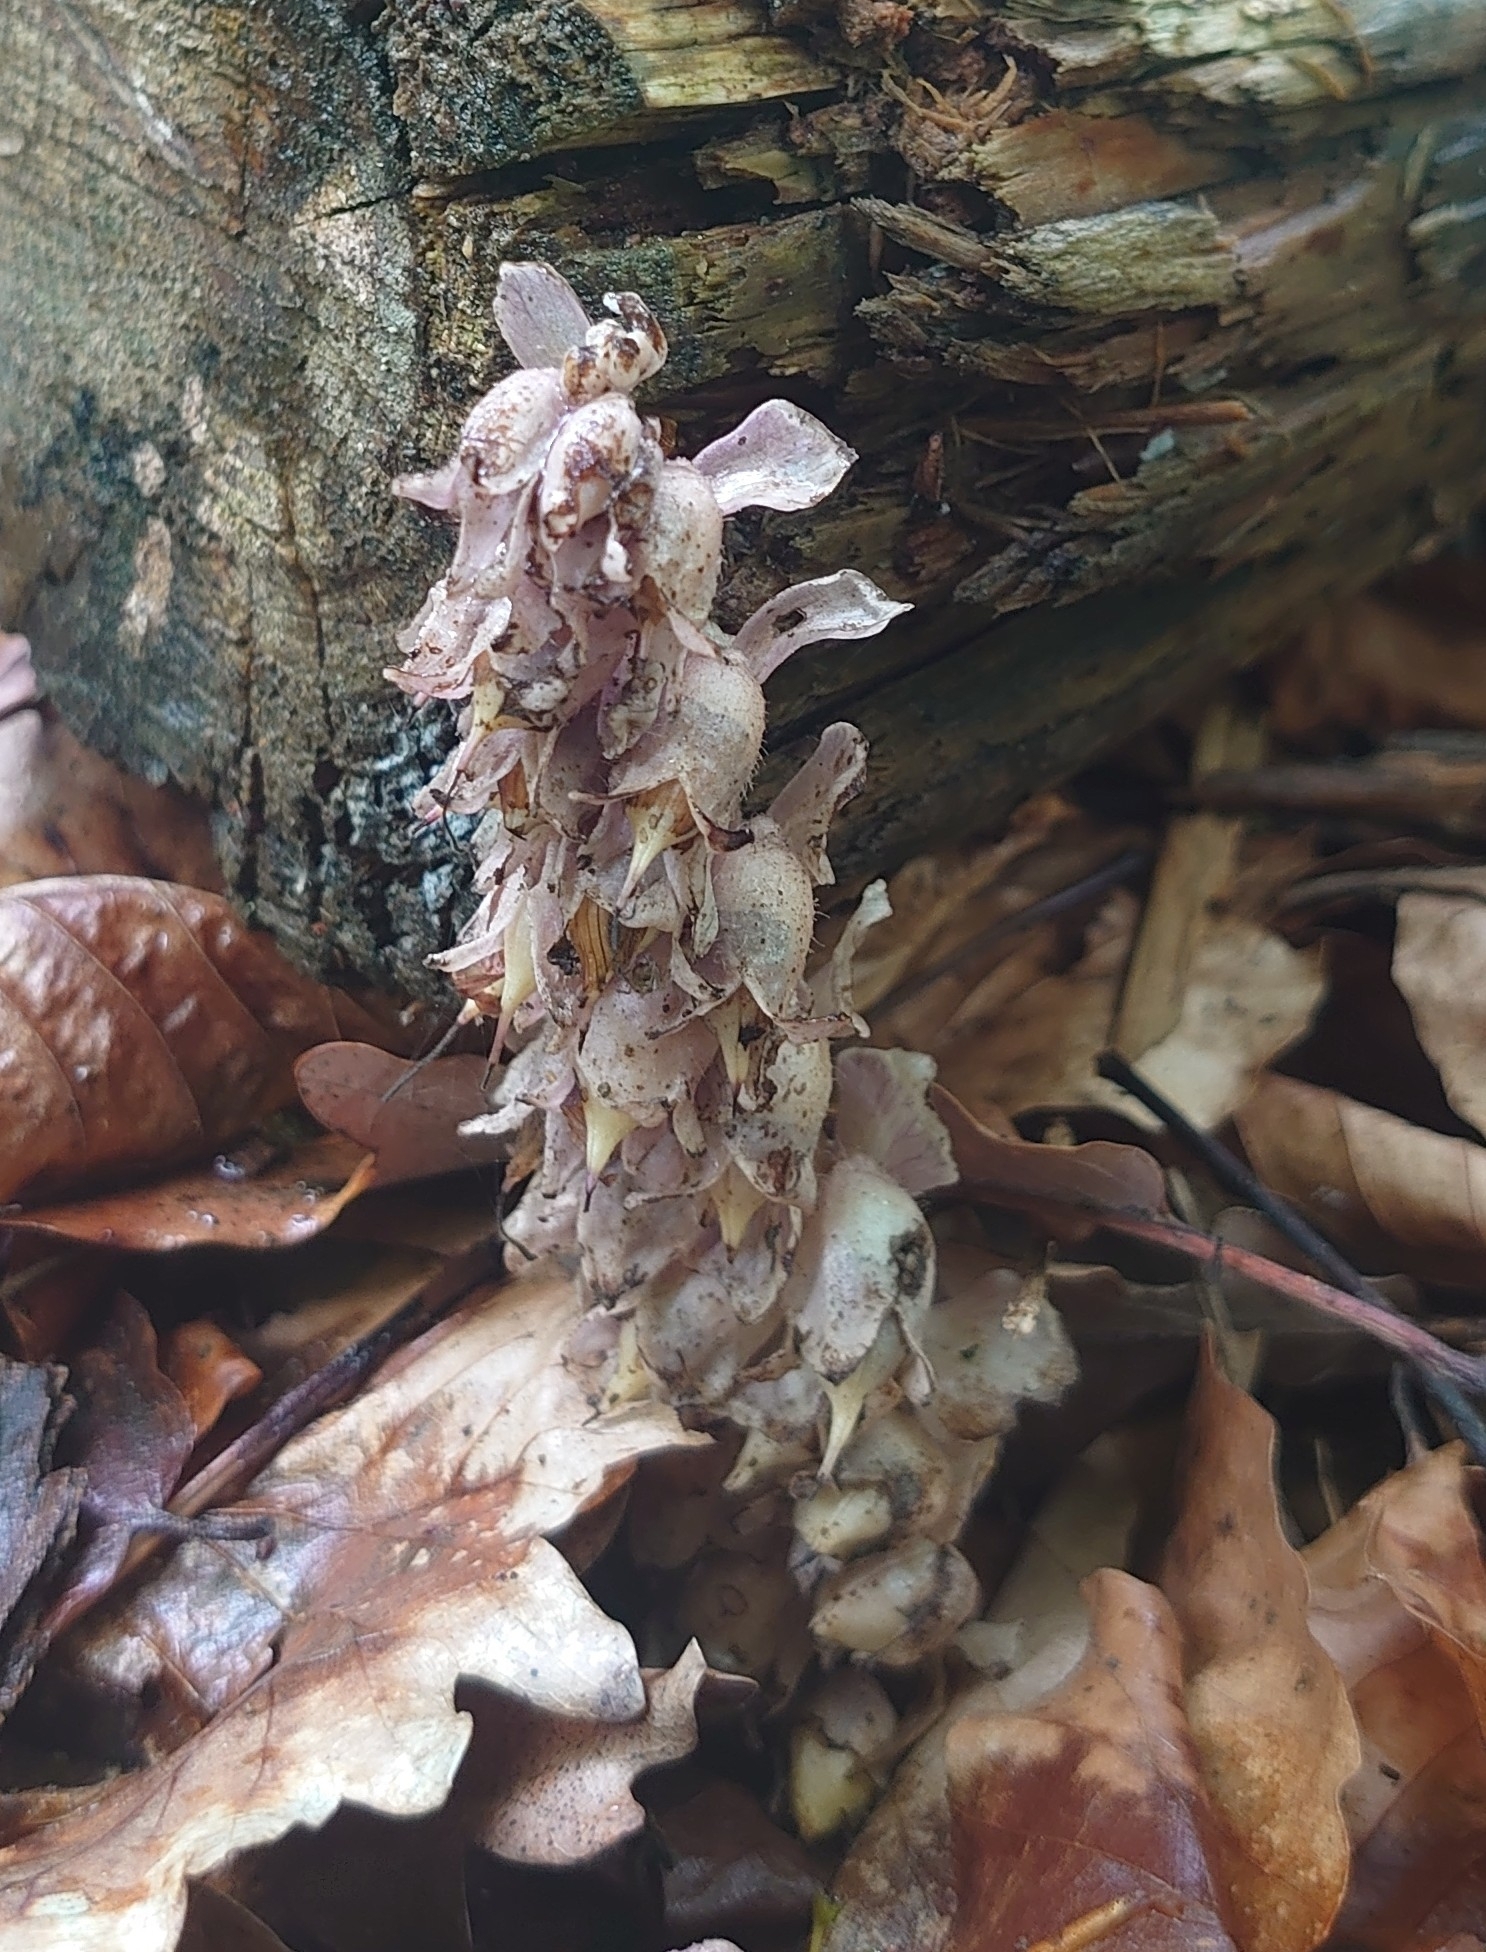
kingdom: Plantae
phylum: Tracheophyta
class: Magnoliopsida
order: Lamiales
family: Orobanchaceae
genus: Lathraea
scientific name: Lathraea squamaria
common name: Toothwort
